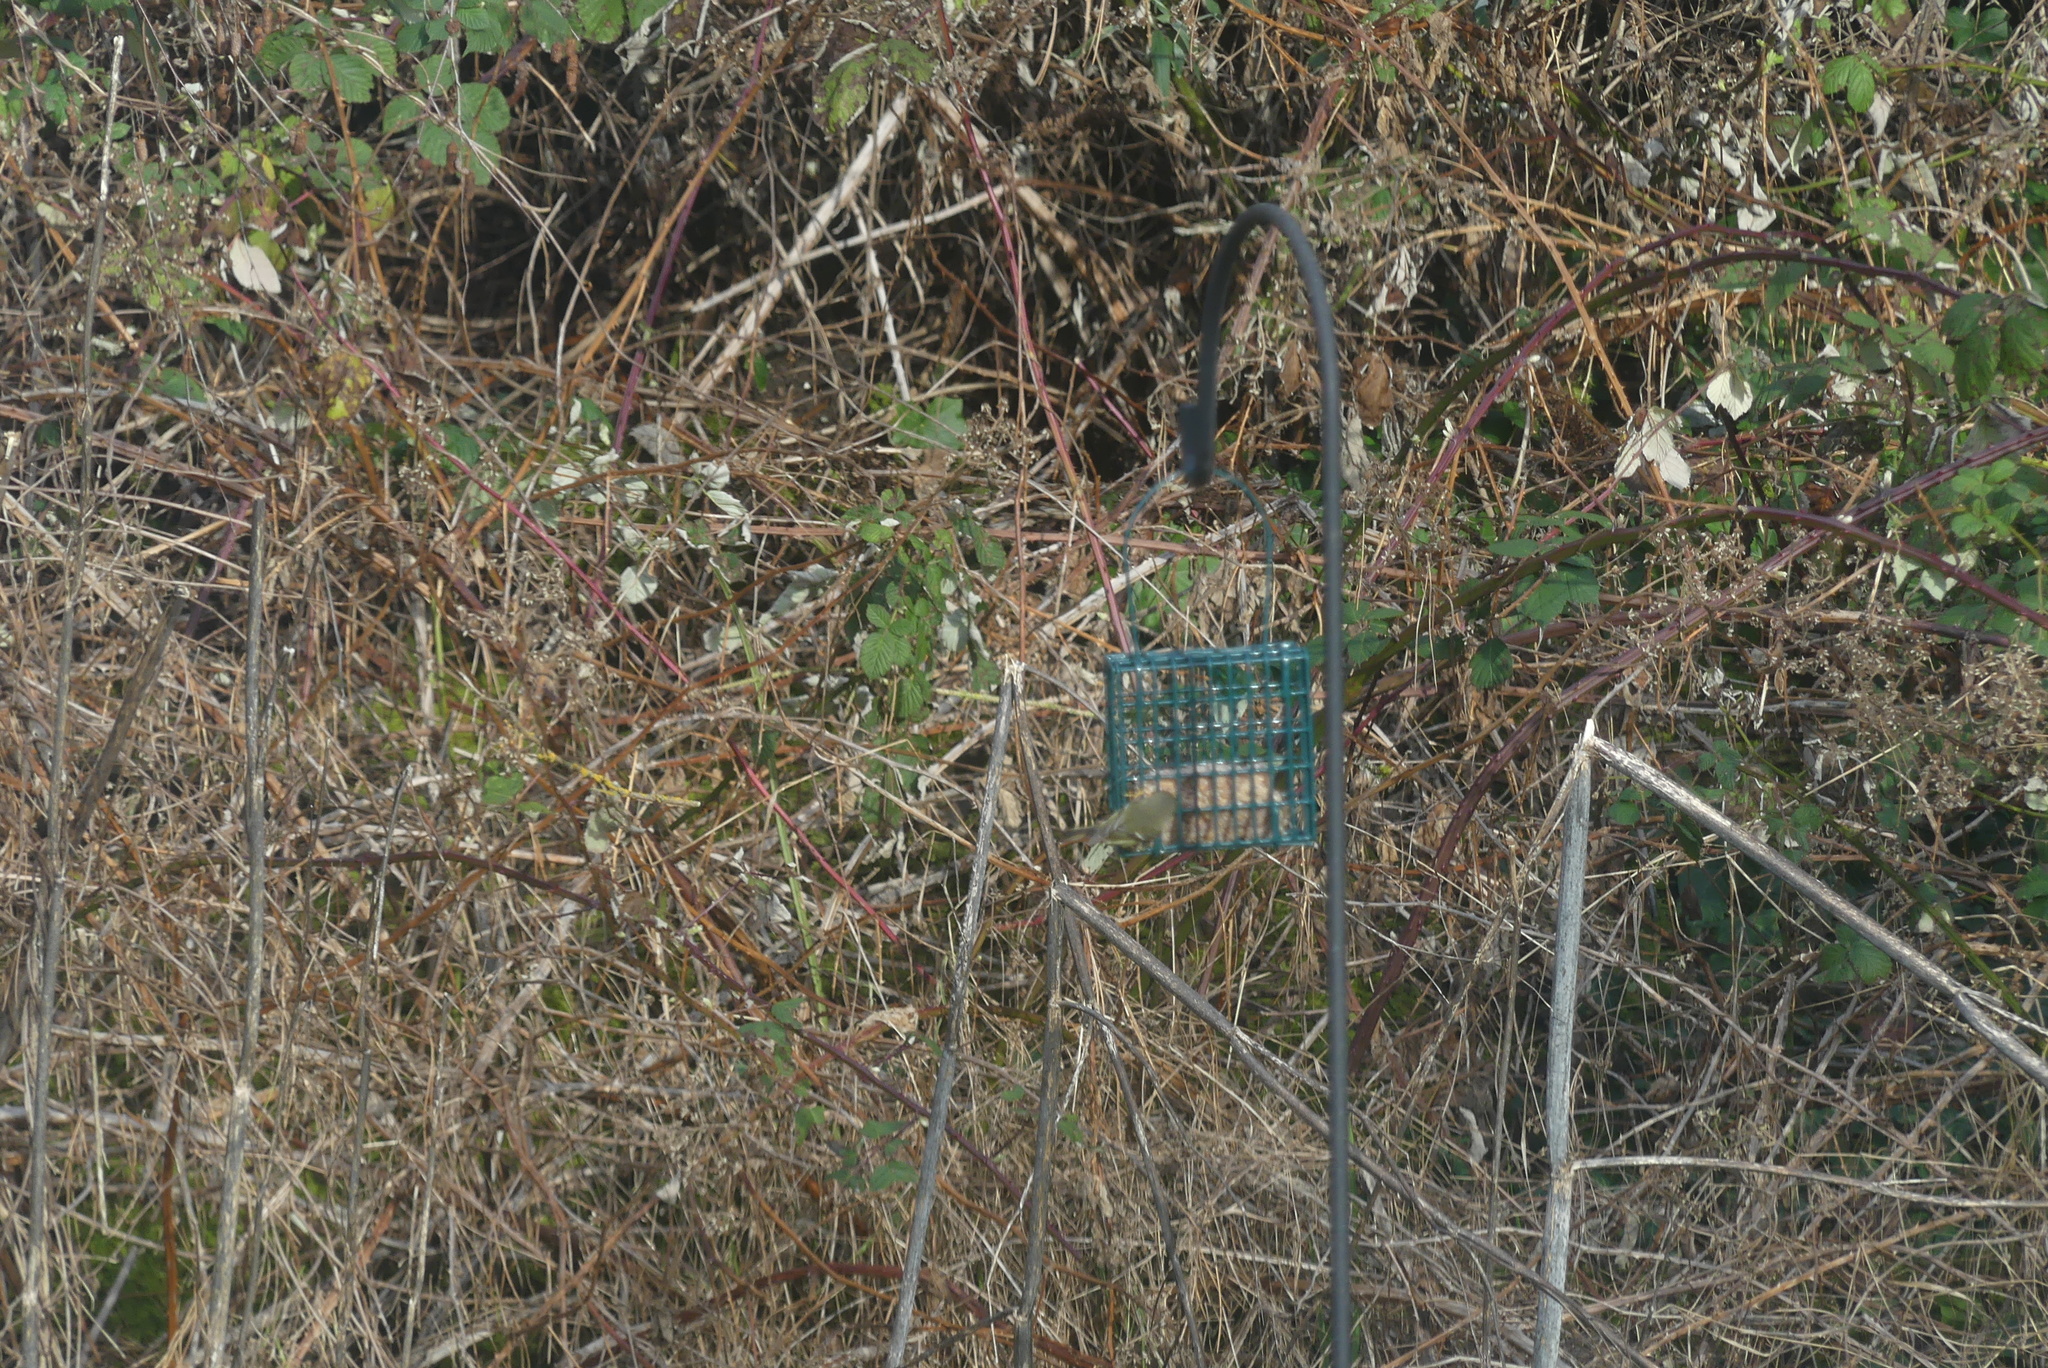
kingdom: Animalia
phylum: Chordata
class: Aves
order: Passeriformes
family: Regulidae
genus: Regulus
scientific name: Regulus calendula
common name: Ruby-crowned kinglet
